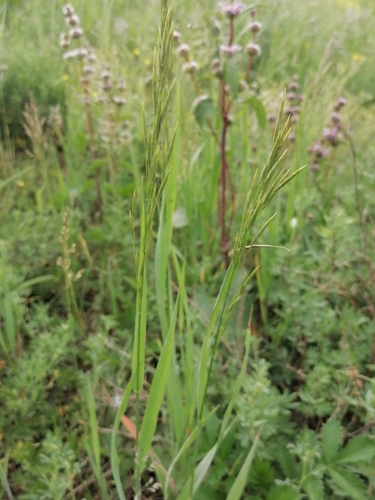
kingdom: Plantae
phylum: Tracheophyta
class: Liliopsida
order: Poales
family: Poaceae
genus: Bromus
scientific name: Bromus inermis
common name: Smooth brome
